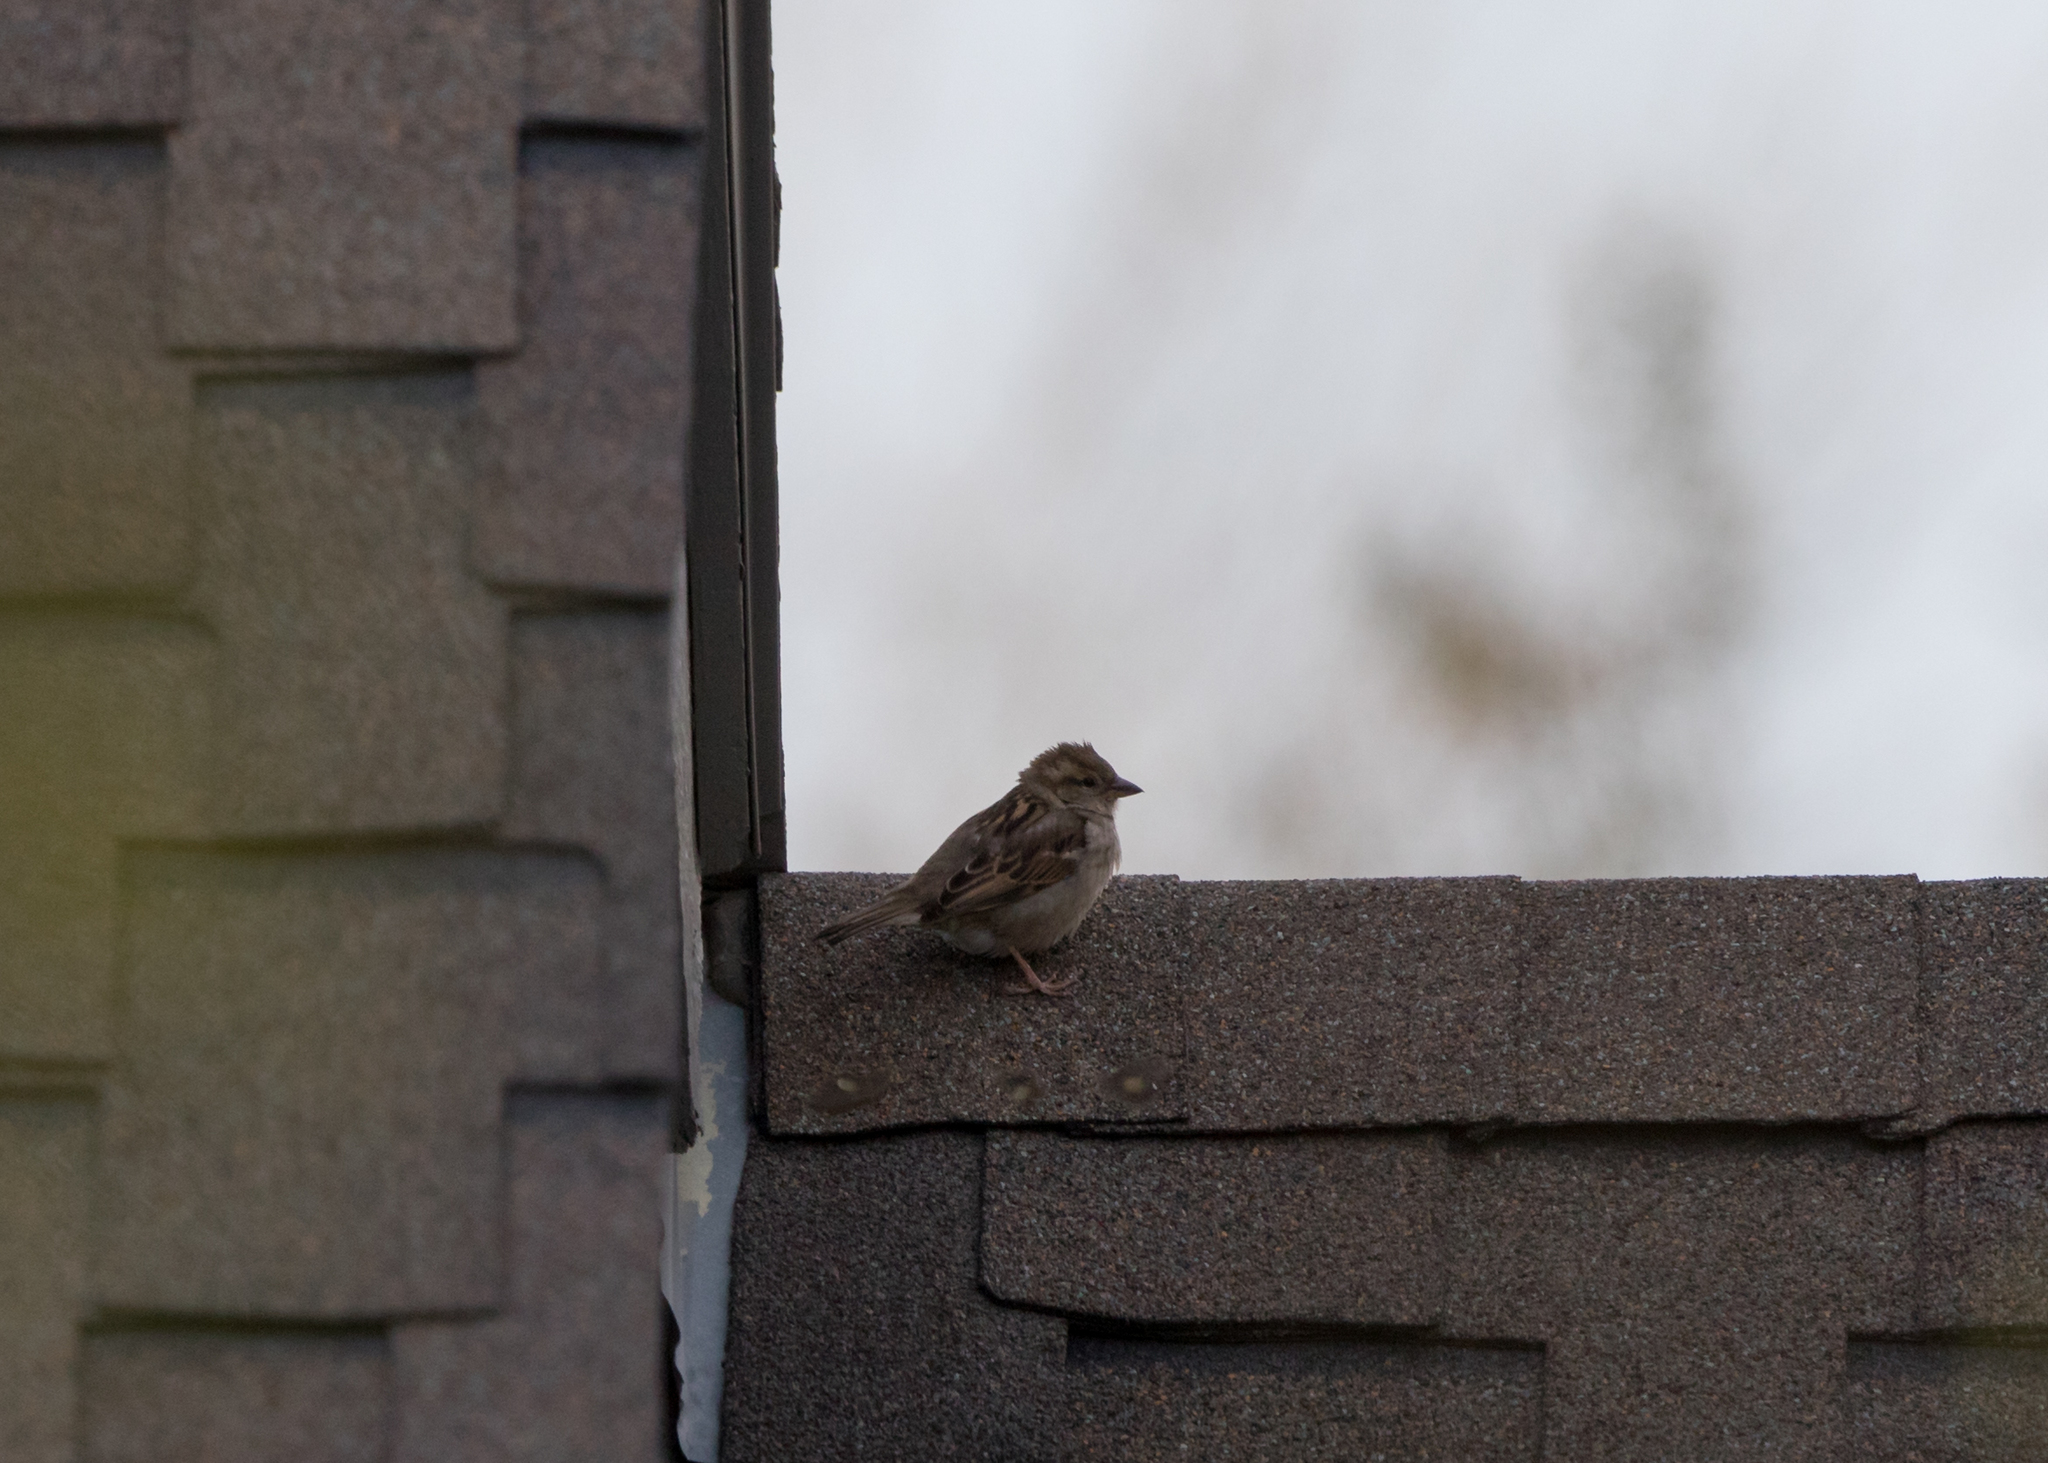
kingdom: Animalia
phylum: Chordata
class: Aves
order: Passeriformes
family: Passeridae
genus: Passer
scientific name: Passer domesticus
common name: House sparrow
